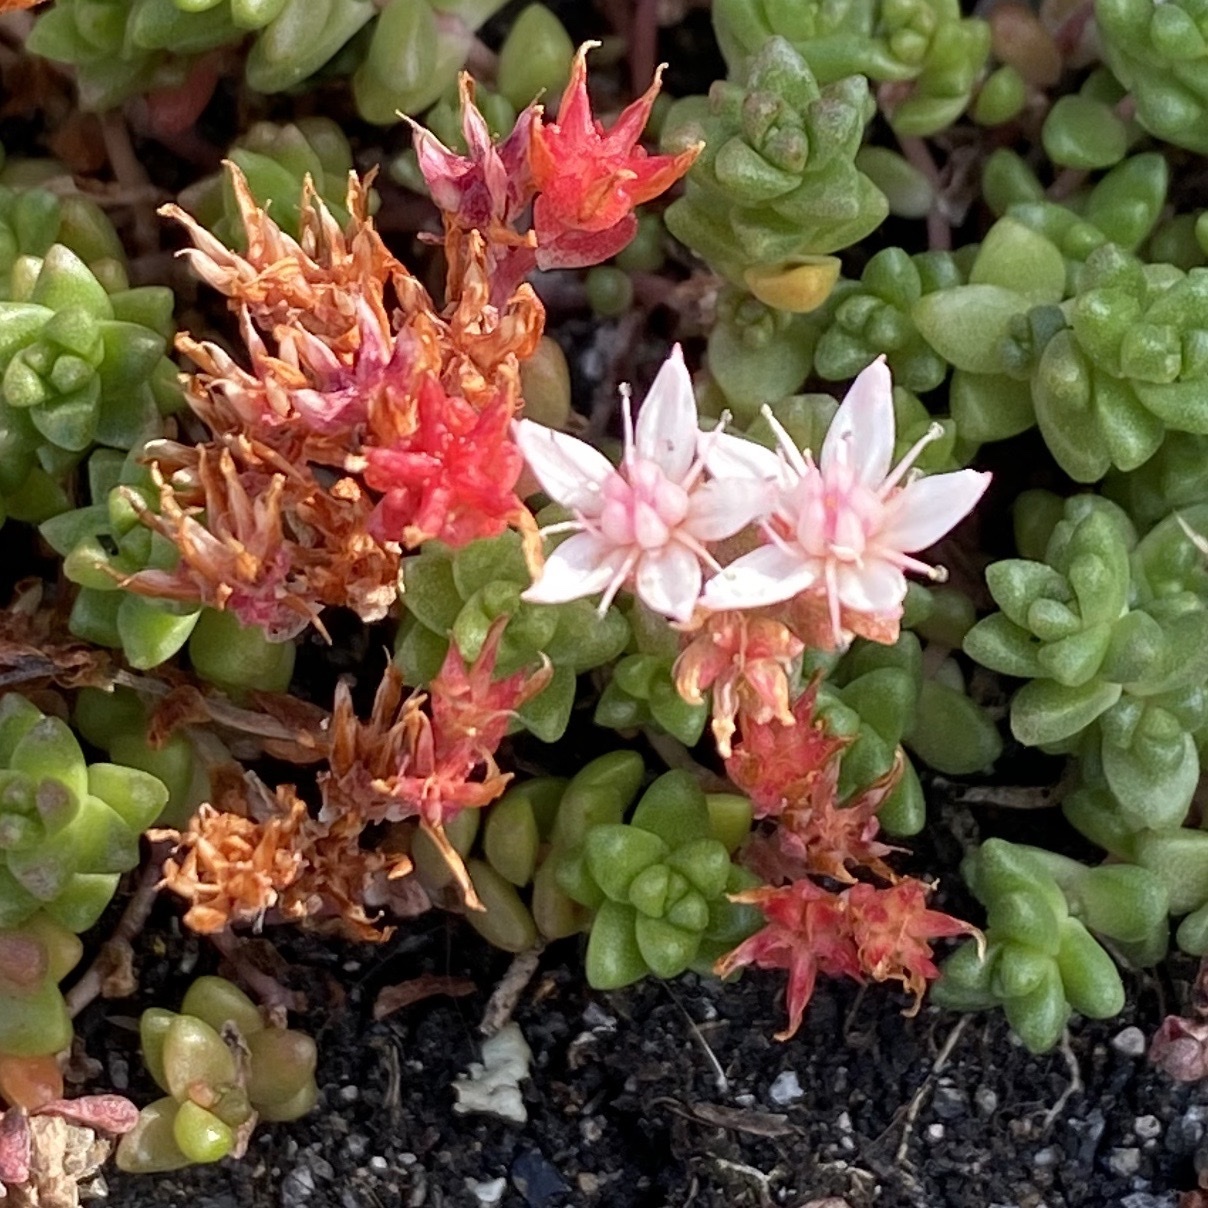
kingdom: Plantae
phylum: Tracheophyta
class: Magnoliopsida
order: Saxifragales
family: Crassulaceae
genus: Sedum
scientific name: Sedum anglicum
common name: English stonecrop
